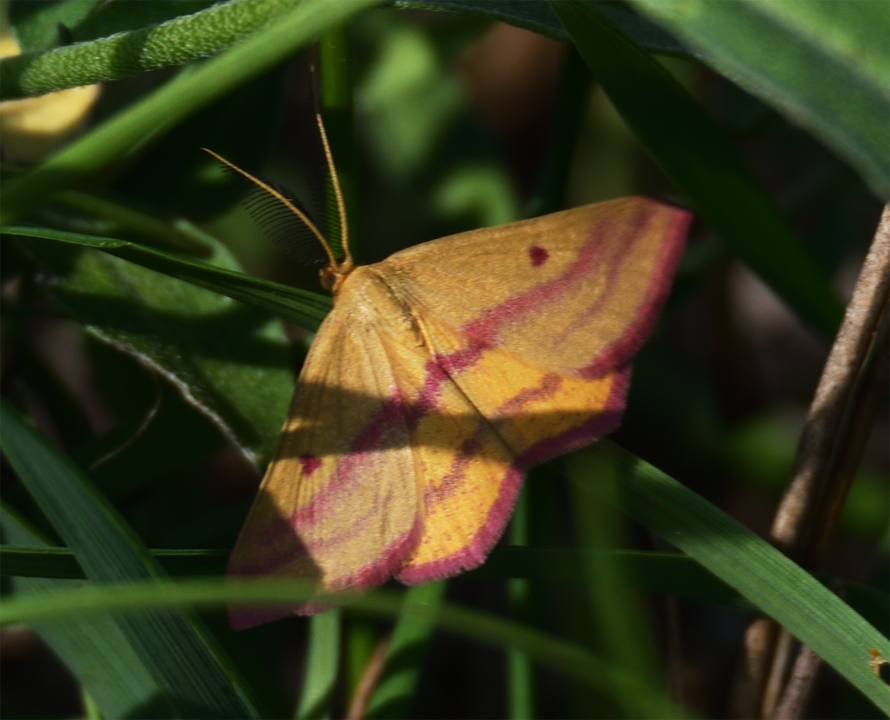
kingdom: Animalia
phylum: Arthropoda
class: Insecta
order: Lepidoptera
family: Geometridae
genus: Haematopis
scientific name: Haematopis grataria
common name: Chickweed geometer
